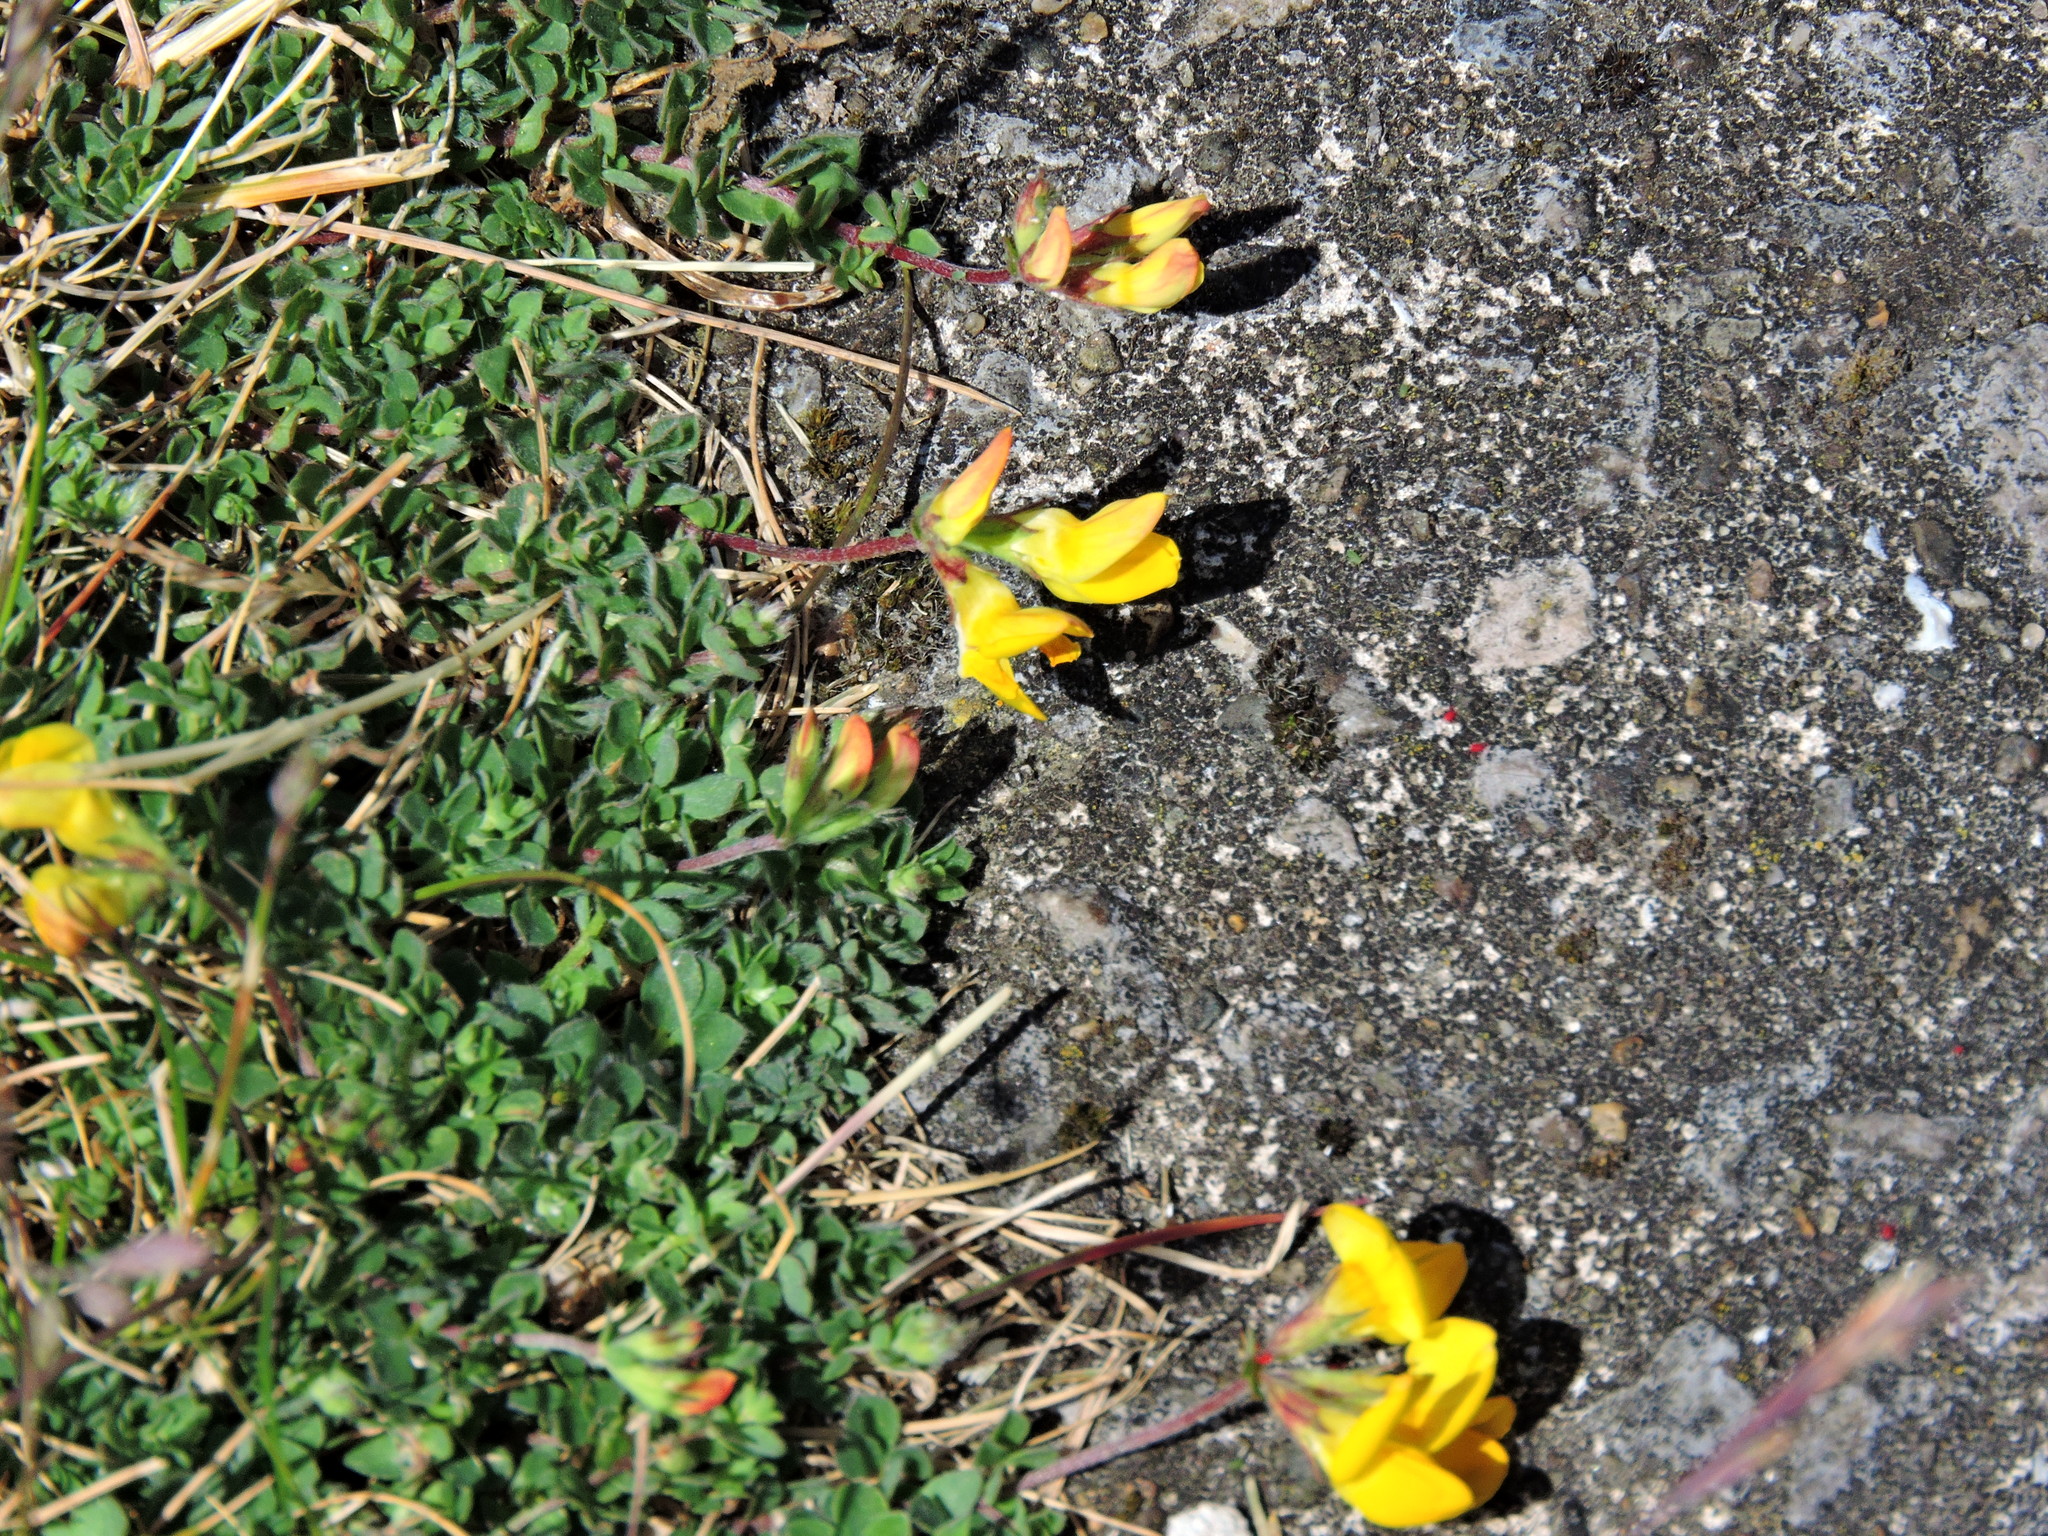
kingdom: Plantae
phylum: Tracheophyta
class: Magnoliopsida
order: Fabales
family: Fabaceae
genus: Lotus
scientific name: Lotus corniculatus
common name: Common bird's-foot-trefoil
